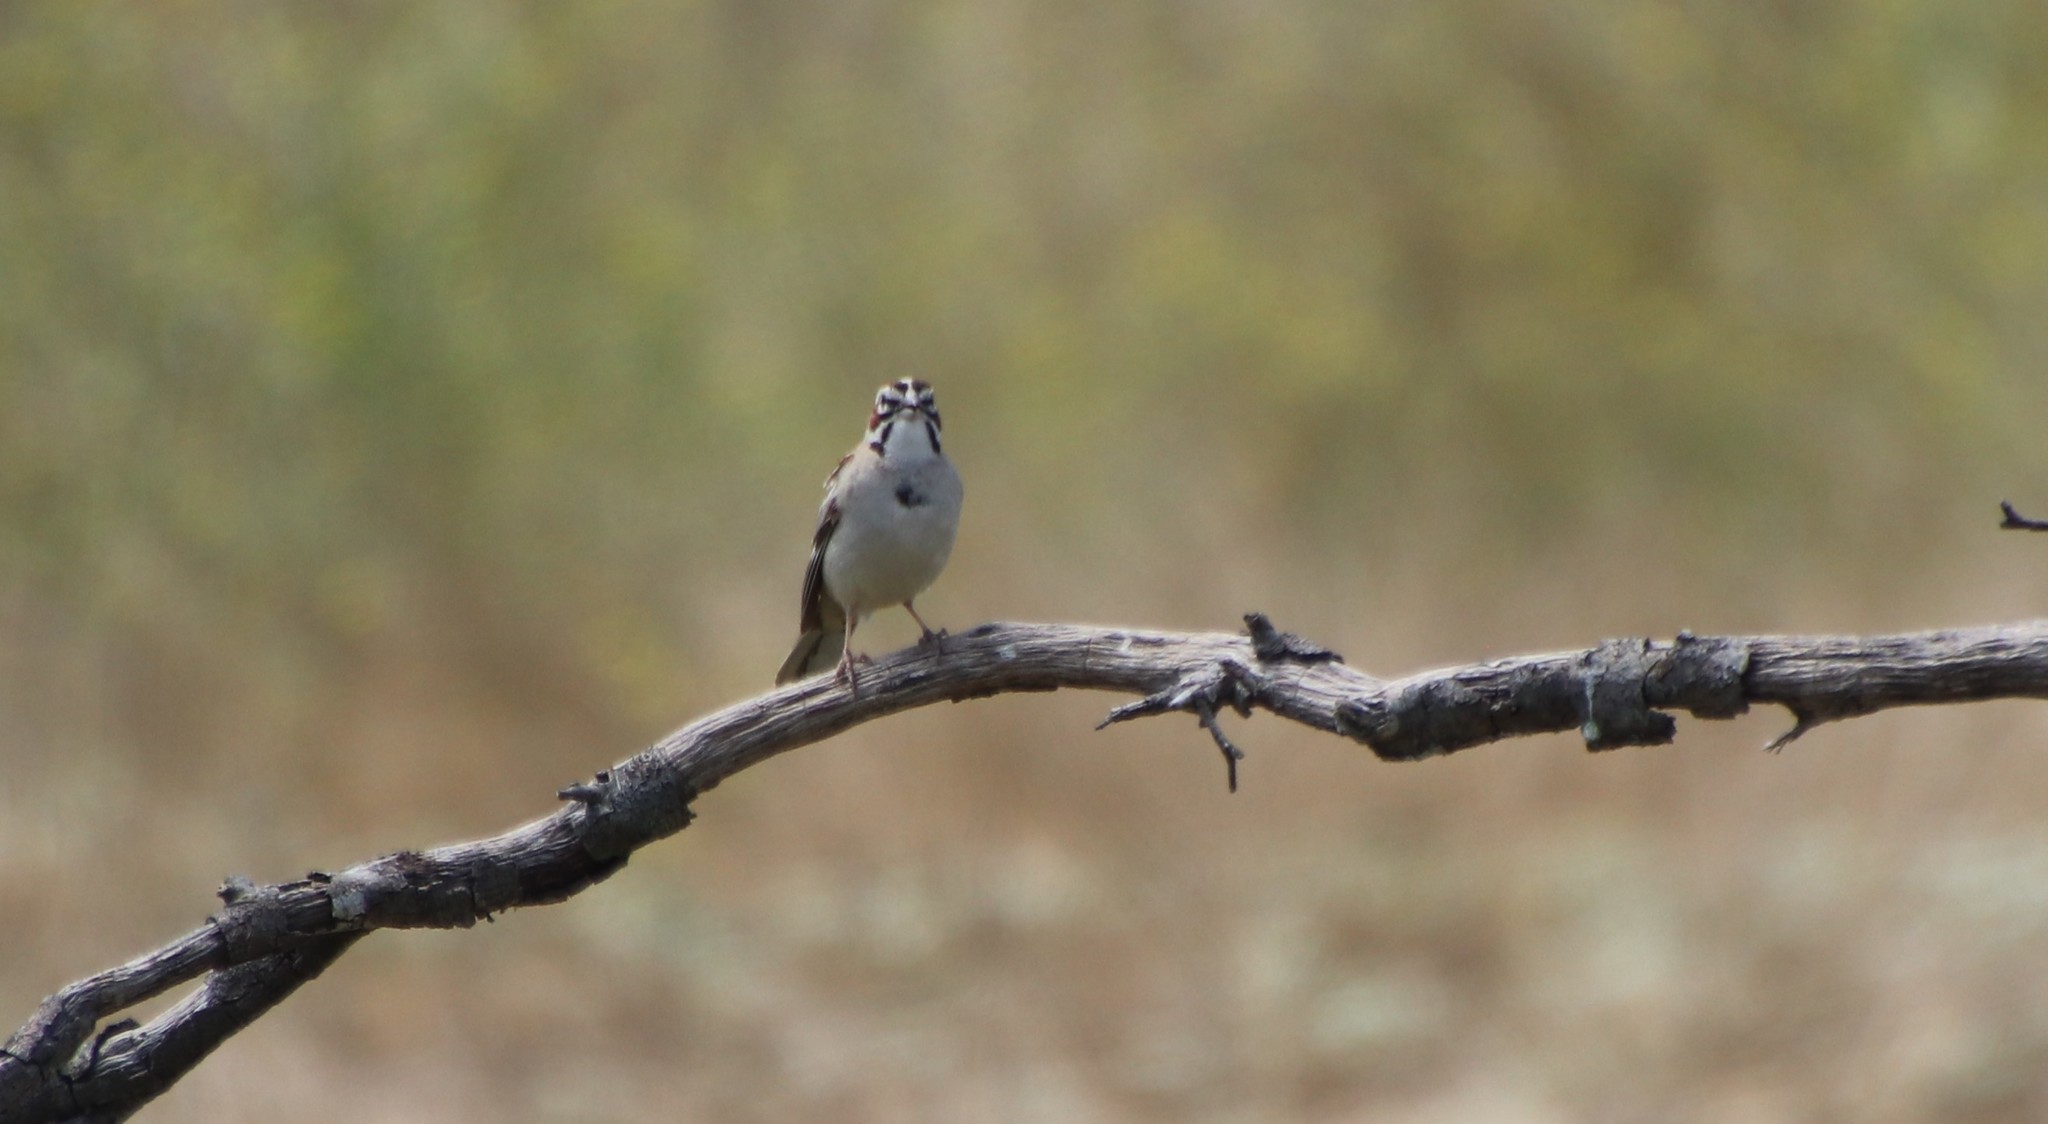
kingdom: Animalia
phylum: Chordata
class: Aves
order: Passeriformes
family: Passerellidae
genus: Chondestes
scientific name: Chondestes grammacus
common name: Lark sparrow
